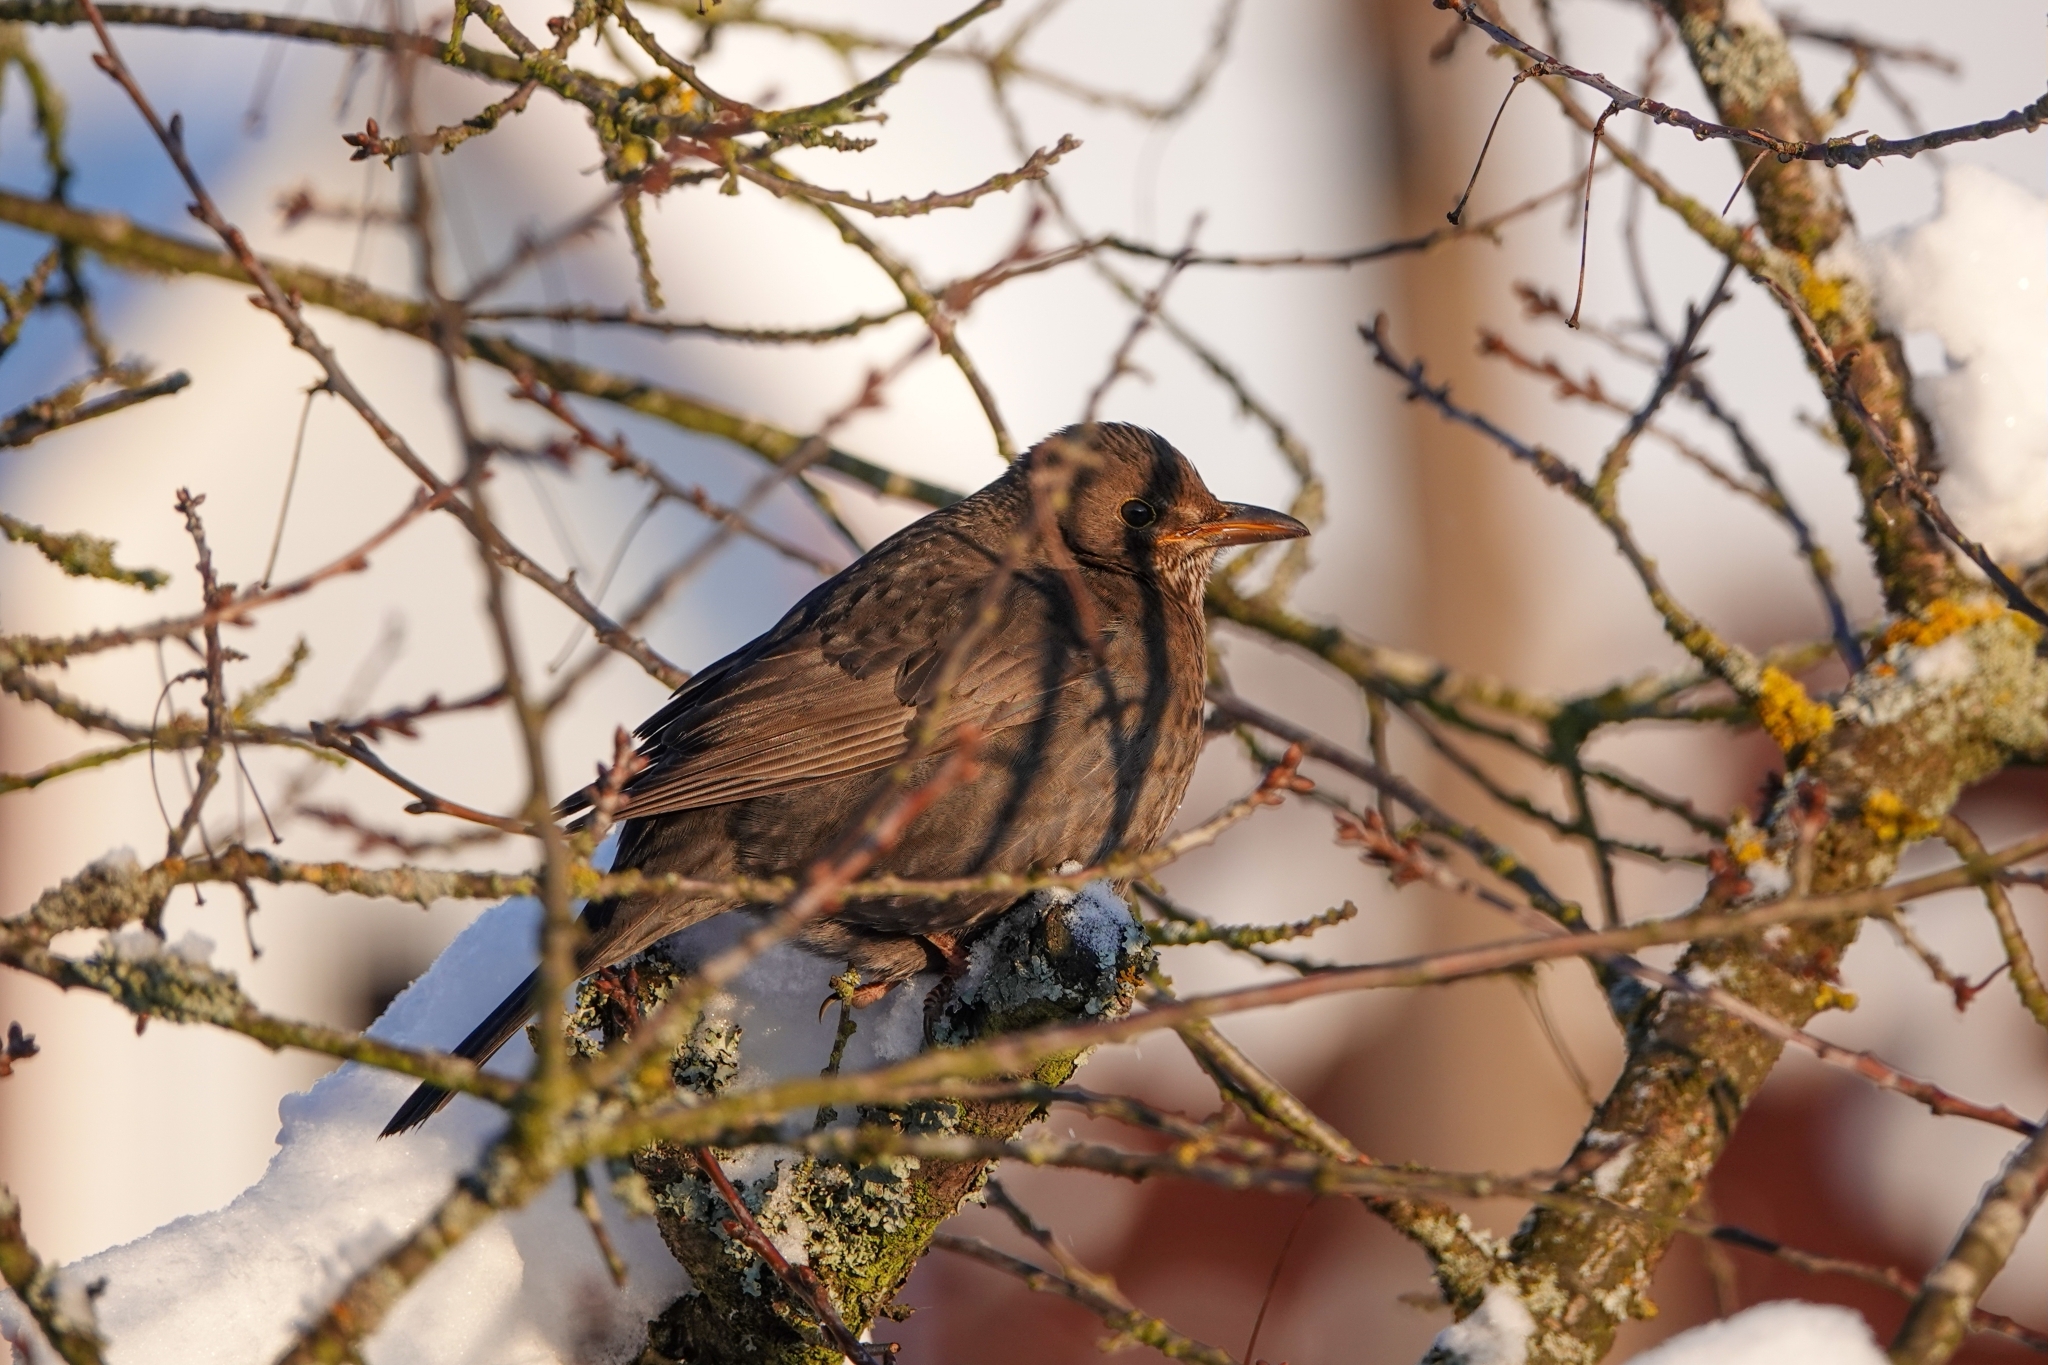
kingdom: Animalia
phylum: Chordata
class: Aves
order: Passeriformes
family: Turdidae
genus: Turdus
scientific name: Turdus merula
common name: Common blackbird
